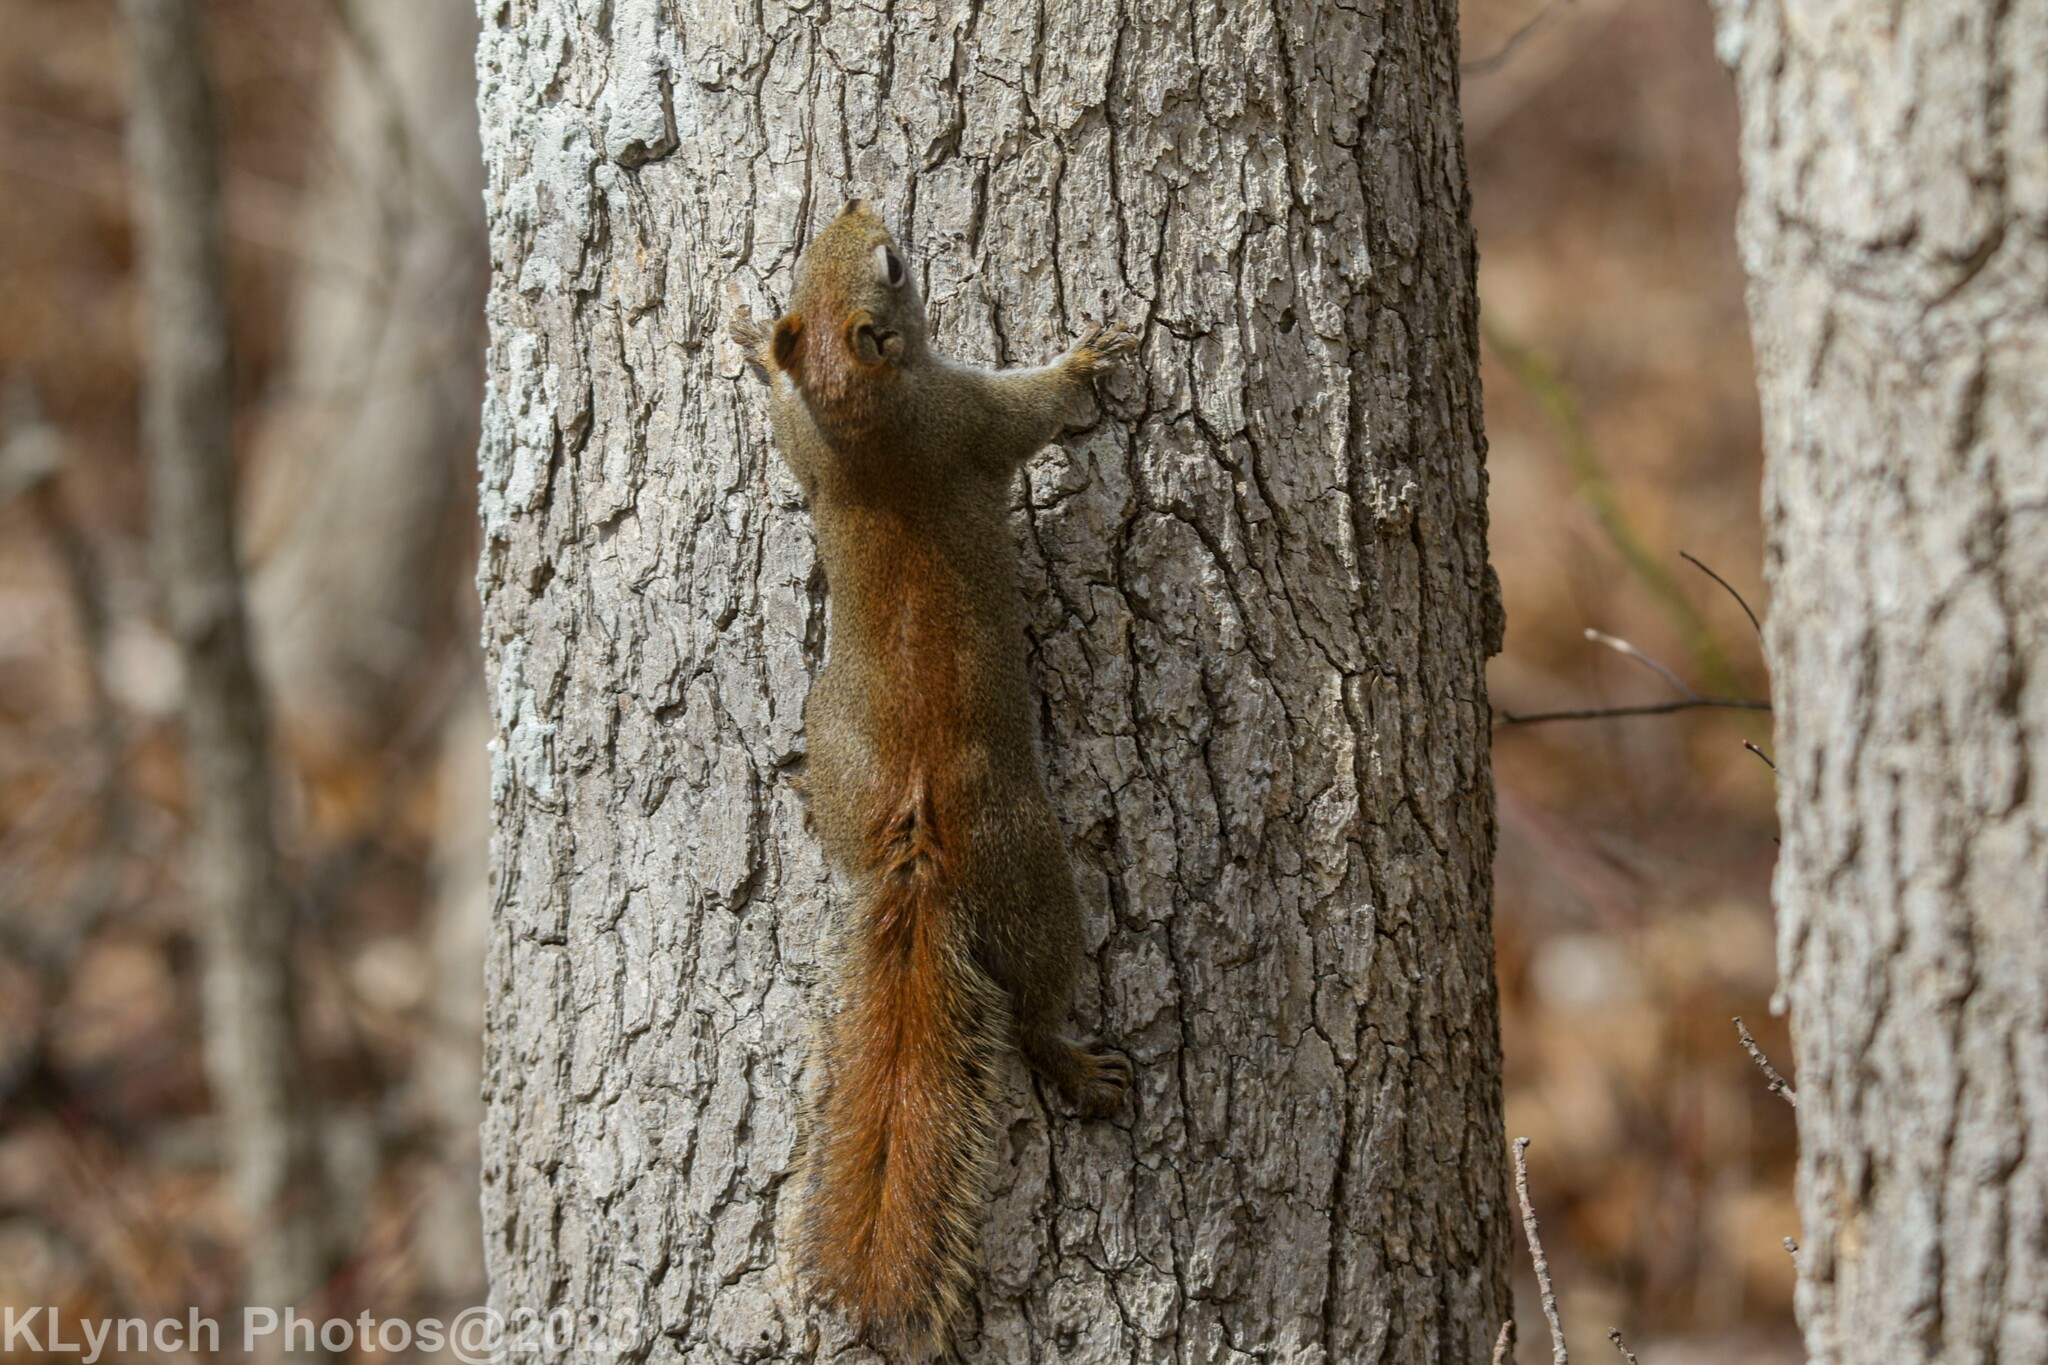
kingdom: Animalia
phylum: Chordata
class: Mammalia
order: Rodentia
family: Sciuridae
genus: Tamiasciurus
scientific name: Tamiasciurus hudsonicus
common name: Red squirrel
